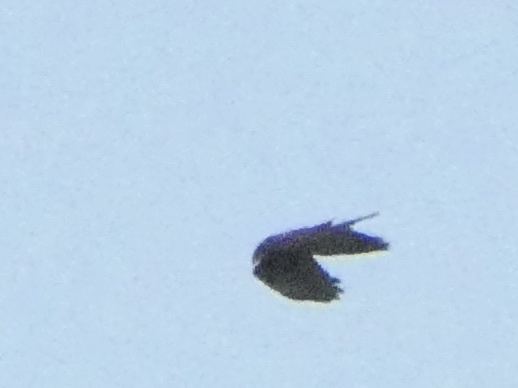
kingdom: Animalia
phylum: Chordata
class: Aves
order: Accipitriformes
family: Accipitridae
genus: Circus
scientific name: Circus aeruginosus
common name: Western marsh harrier
